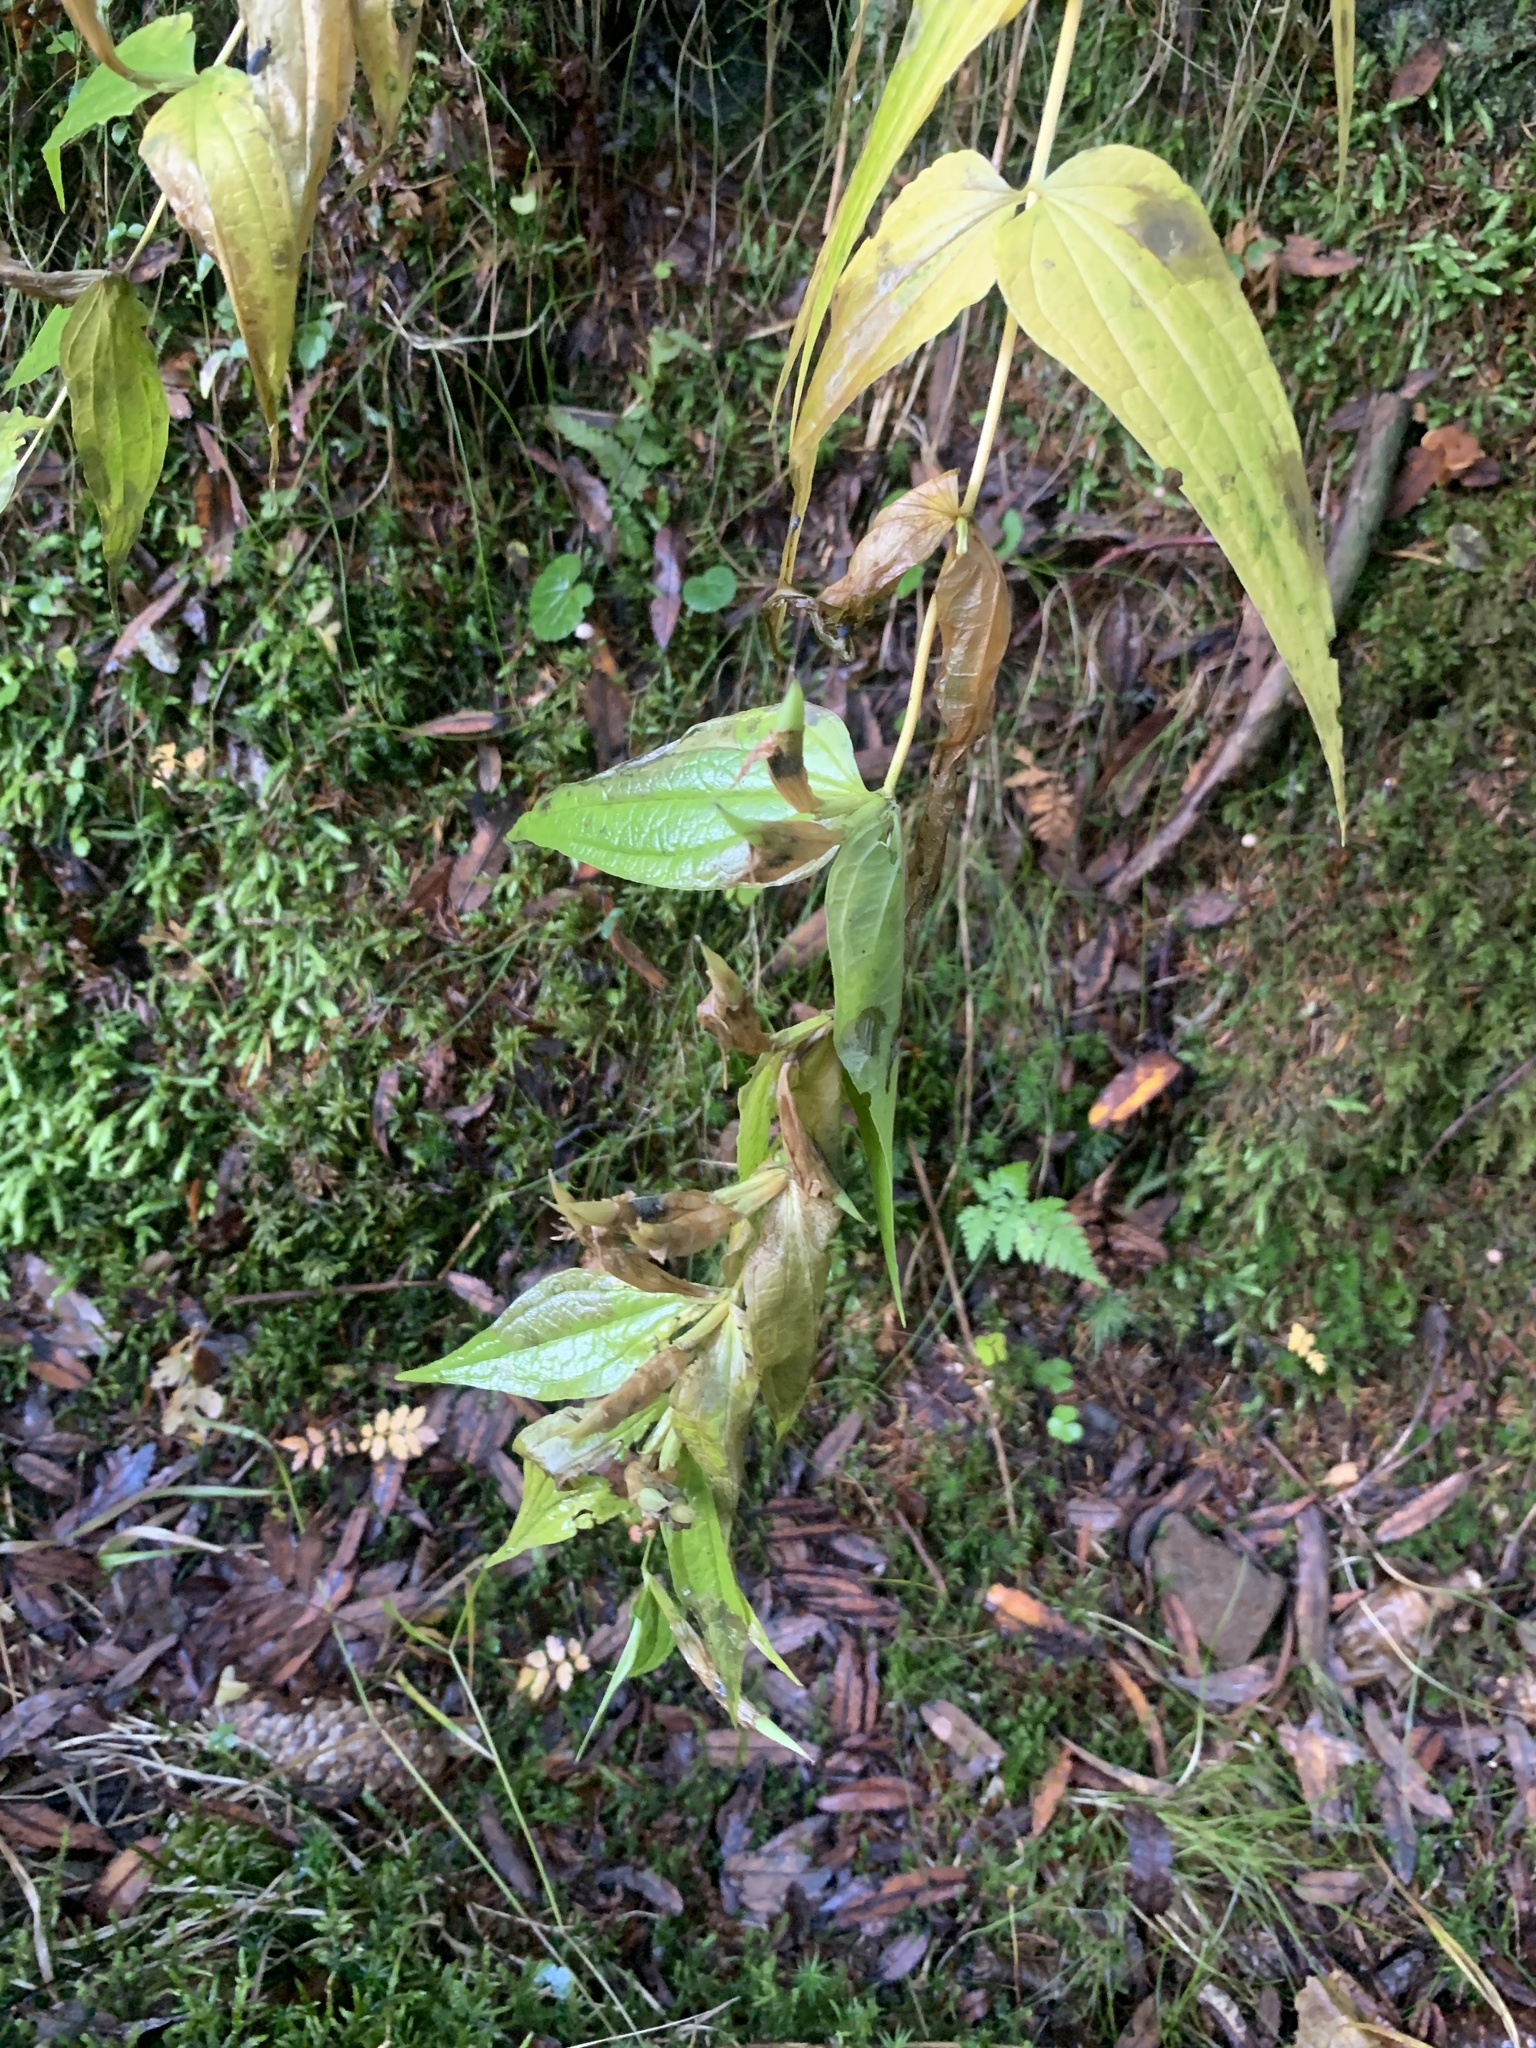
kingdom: Plantae
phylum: Tracheophyta
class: Magnoliopsida
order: Gentianales
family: Gentianaceae
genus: Gentiana
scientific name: Gentiana asclepiadea
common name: Willow gentian
